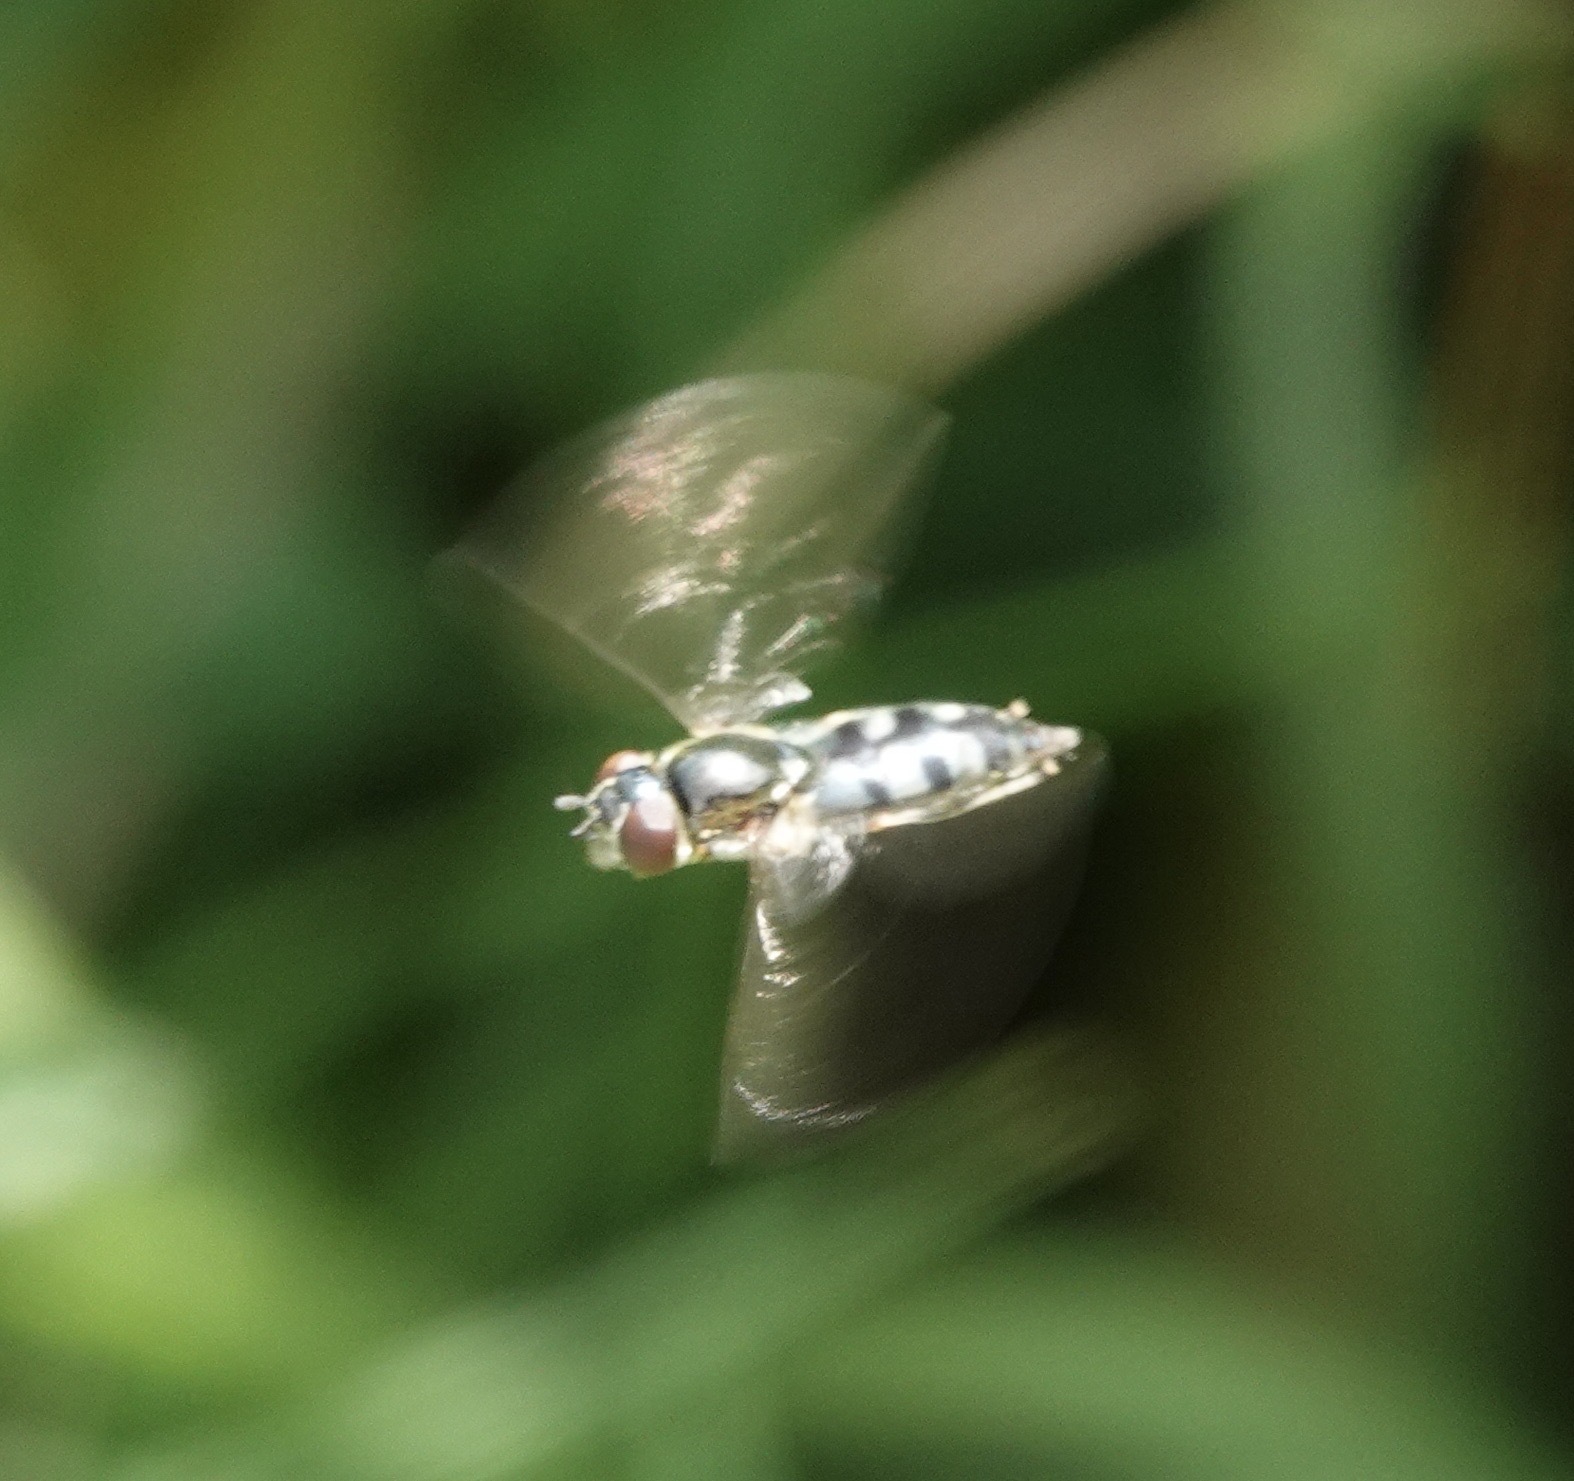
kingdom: Animalia
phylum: Arthropoda
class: Insecta
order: Diptera
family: Syrphidae
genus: Platycheirus
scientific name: Platycheirus albimanus
